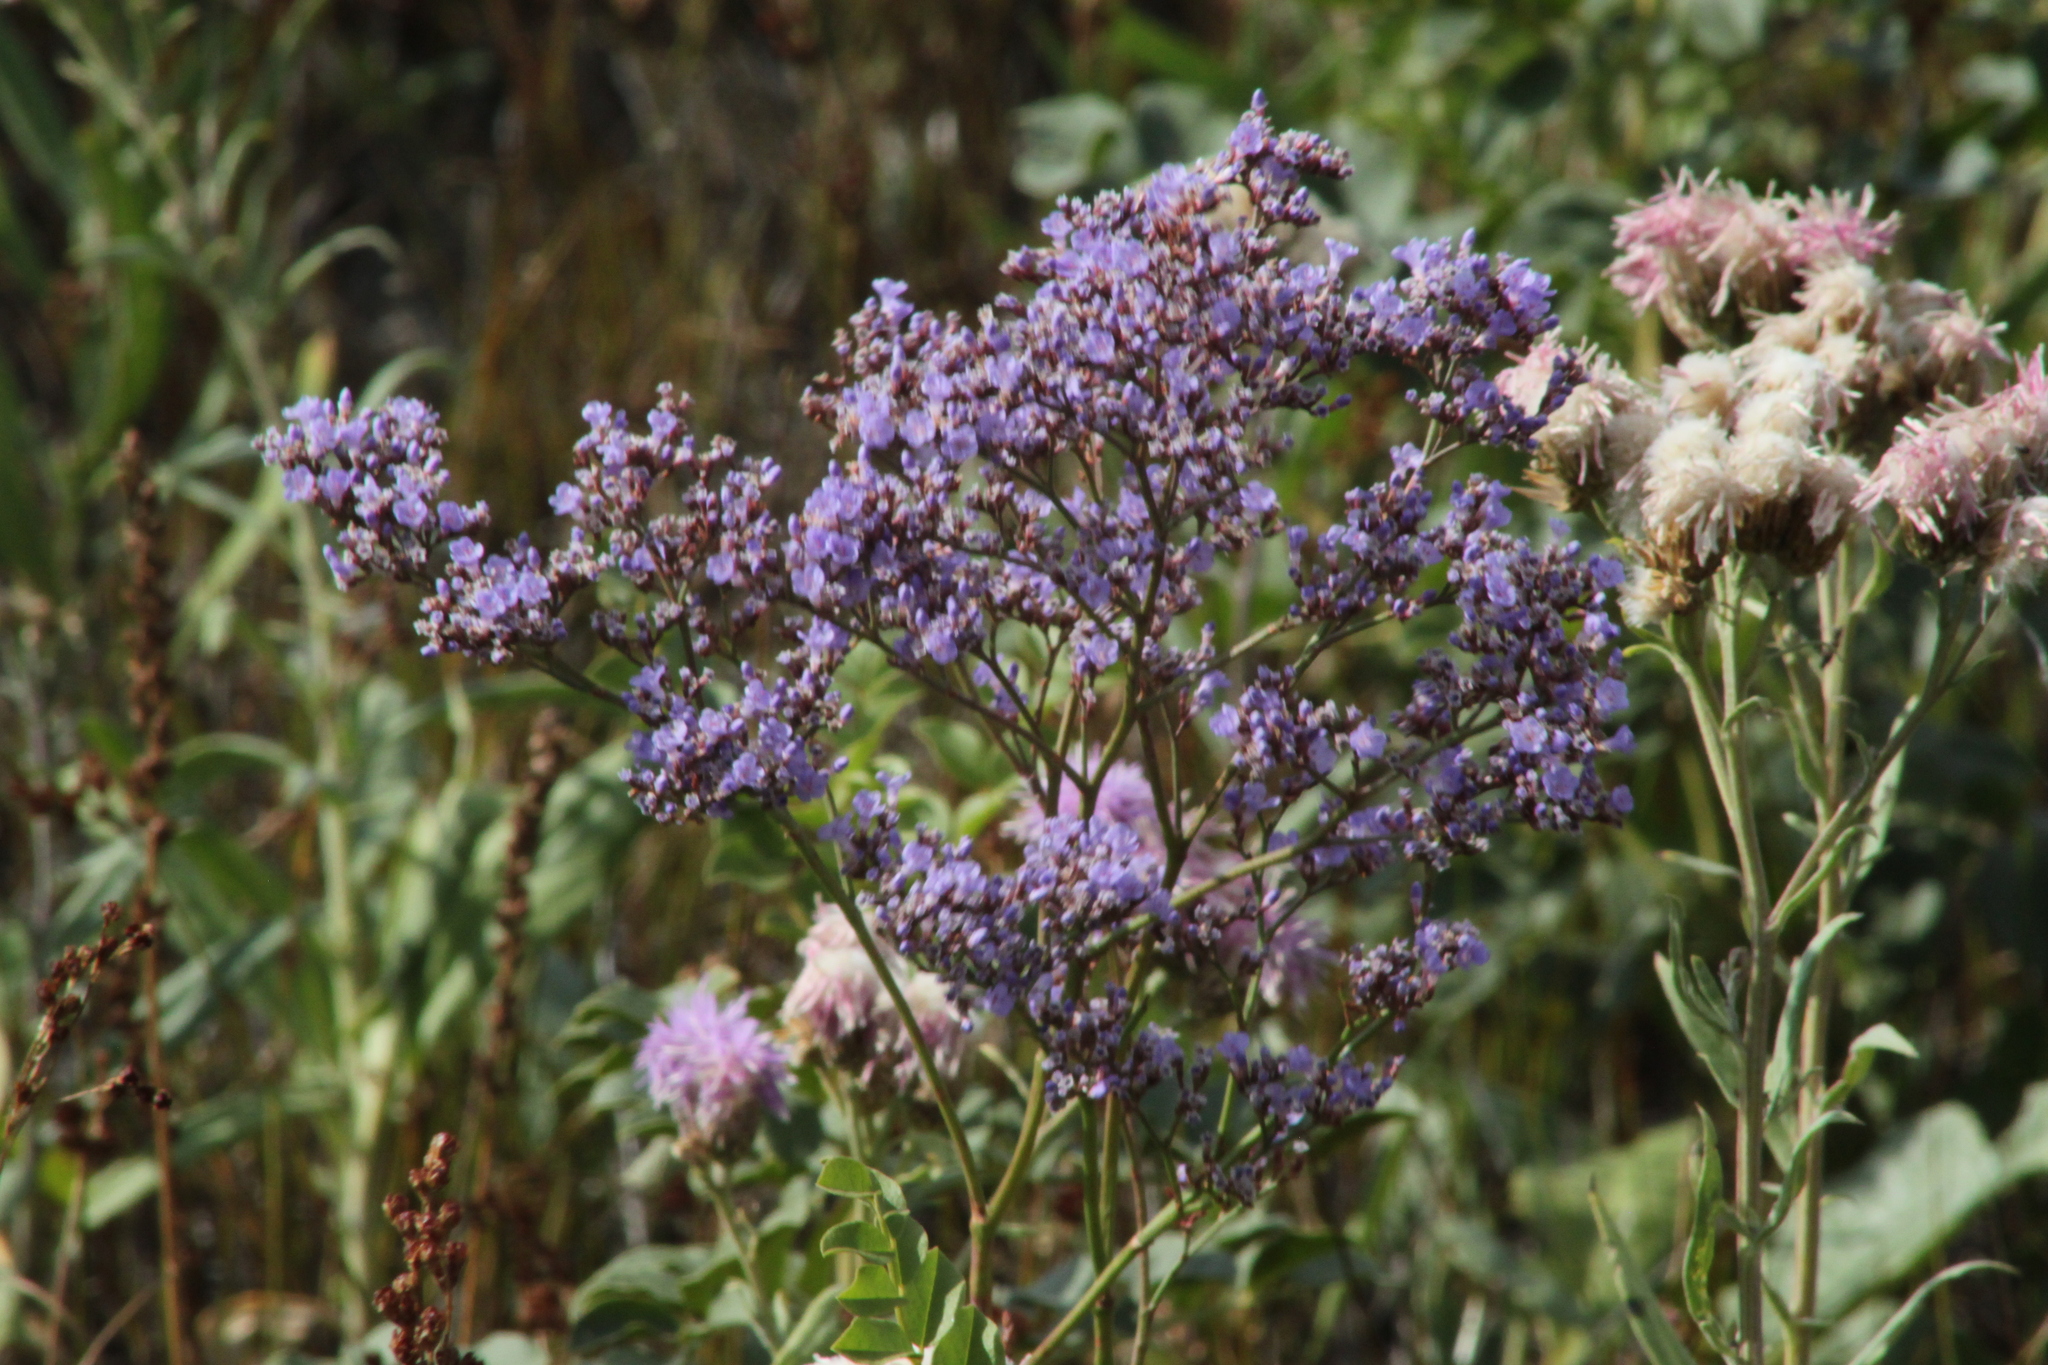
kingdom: Plantae
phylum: Tracheophyta
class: Magnoliopsida
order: Caryophyllales
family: Plumbaginaceae
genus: Limonium
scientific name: Limonium gmelini
